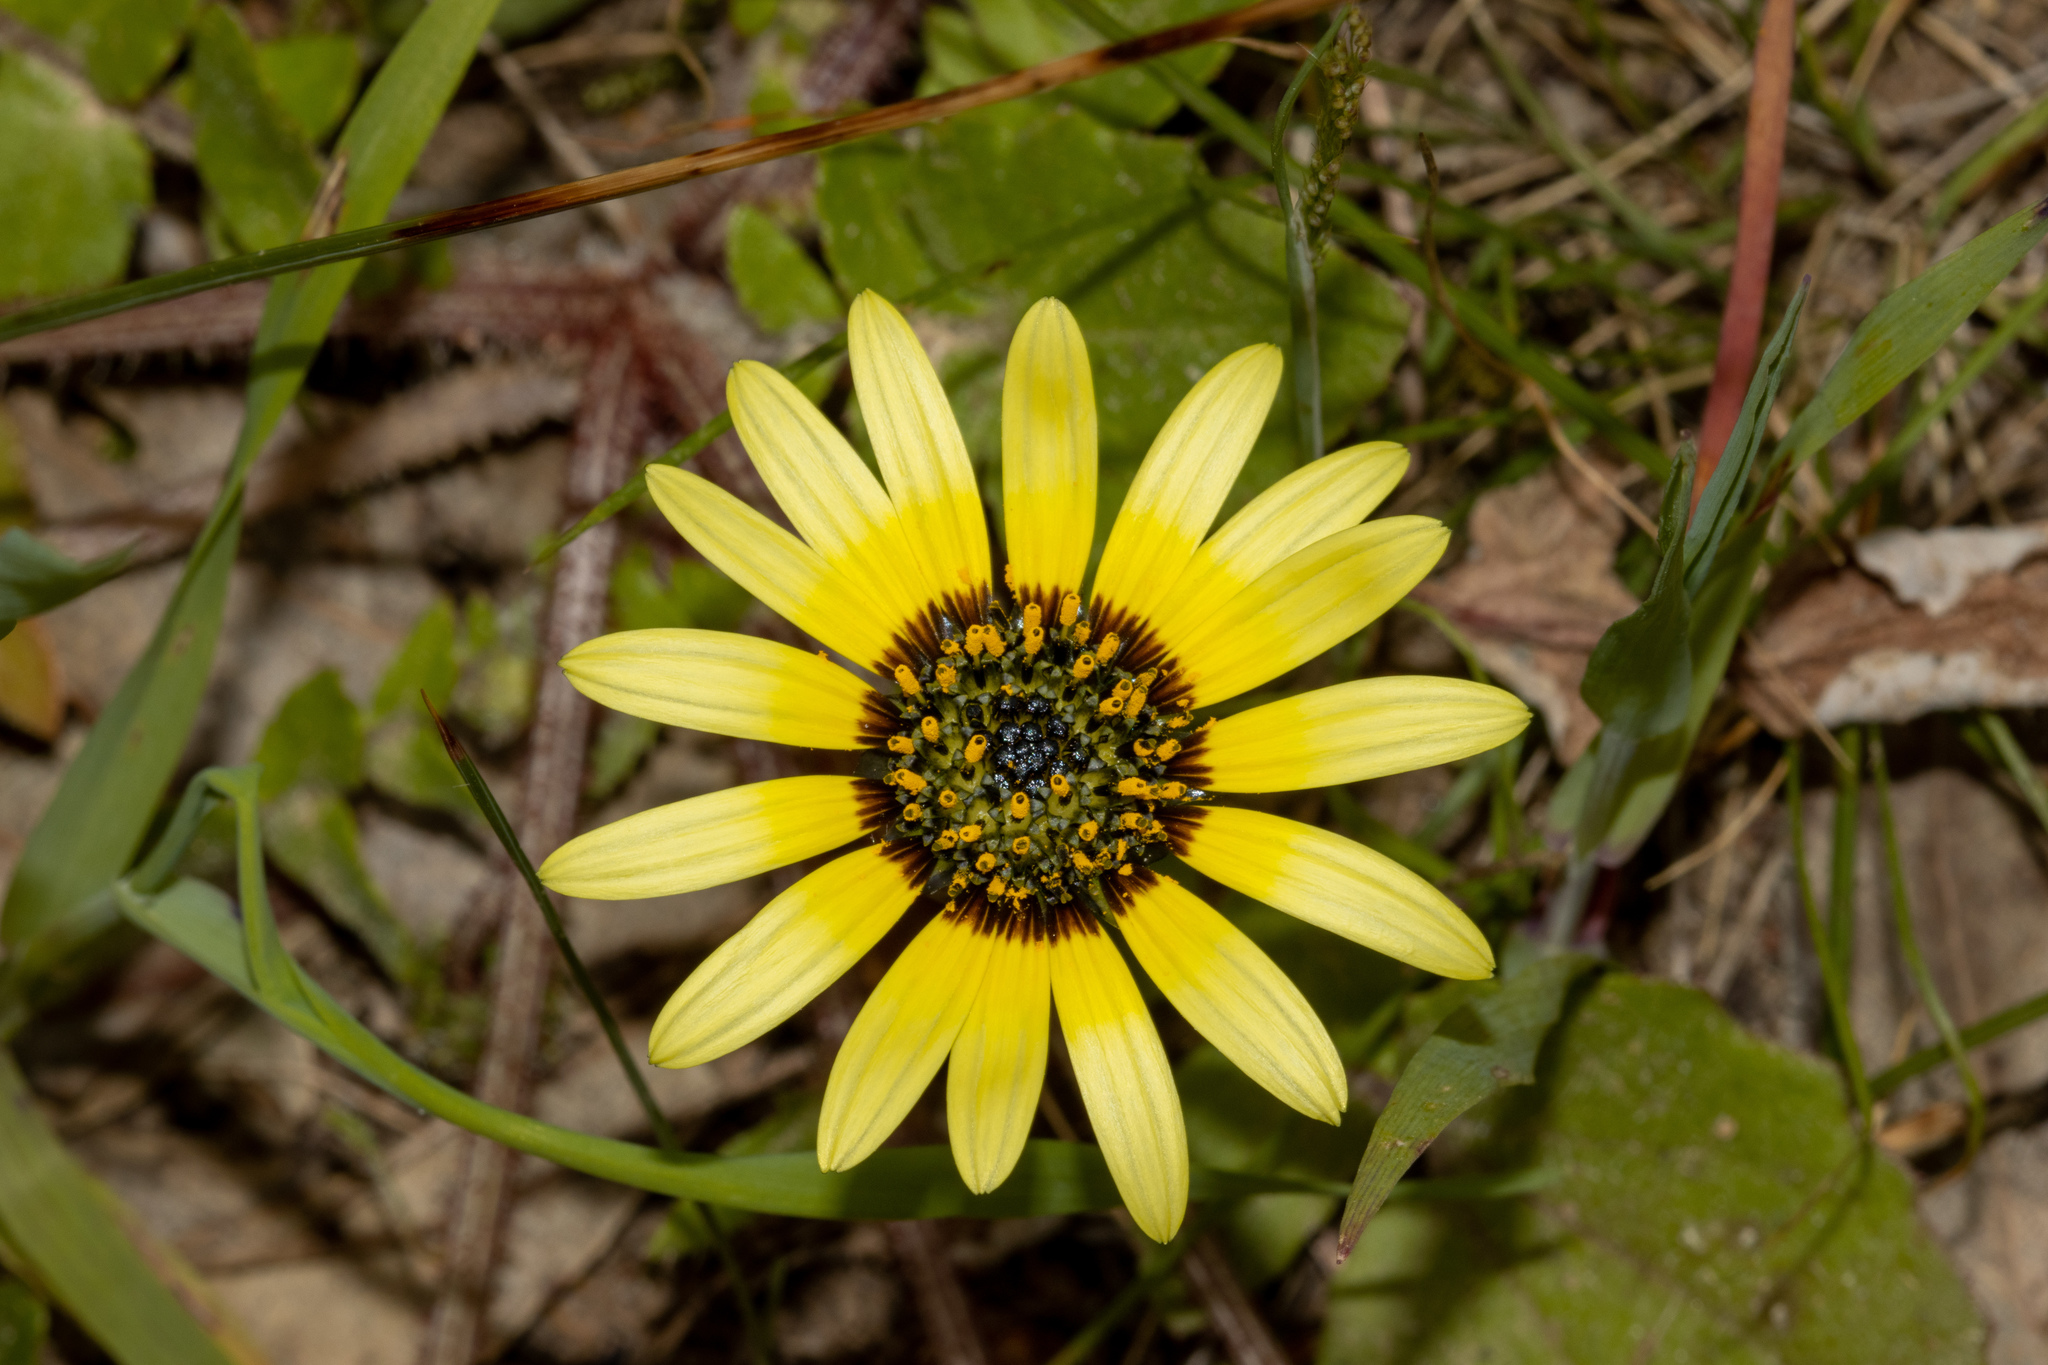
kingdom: Plantae
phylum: Tracheophyta
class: Magnoliopsida
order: Asterales
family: Asteraceae
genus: Arctotheca
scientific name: Arctotheca calendula
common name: Capeweed
